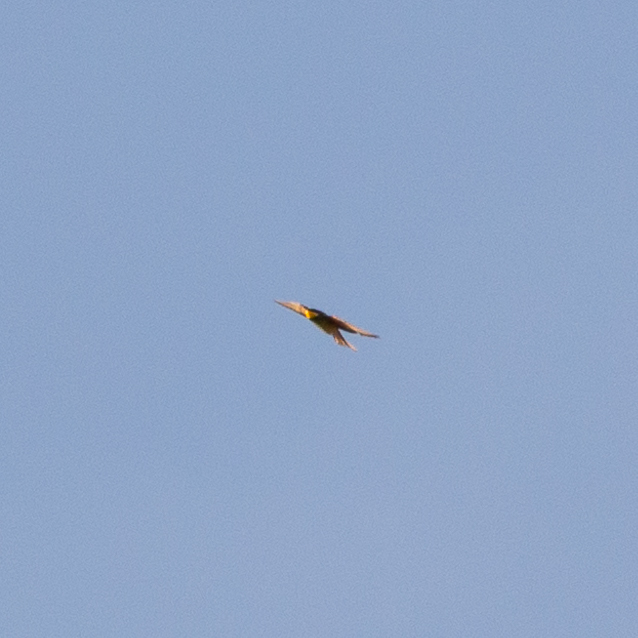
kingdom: Animalia
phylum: Chordata
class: Aves
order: Coraciiformes
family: Meropidae
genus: Merops
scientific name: Merops apiaster
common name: European bee-eater
